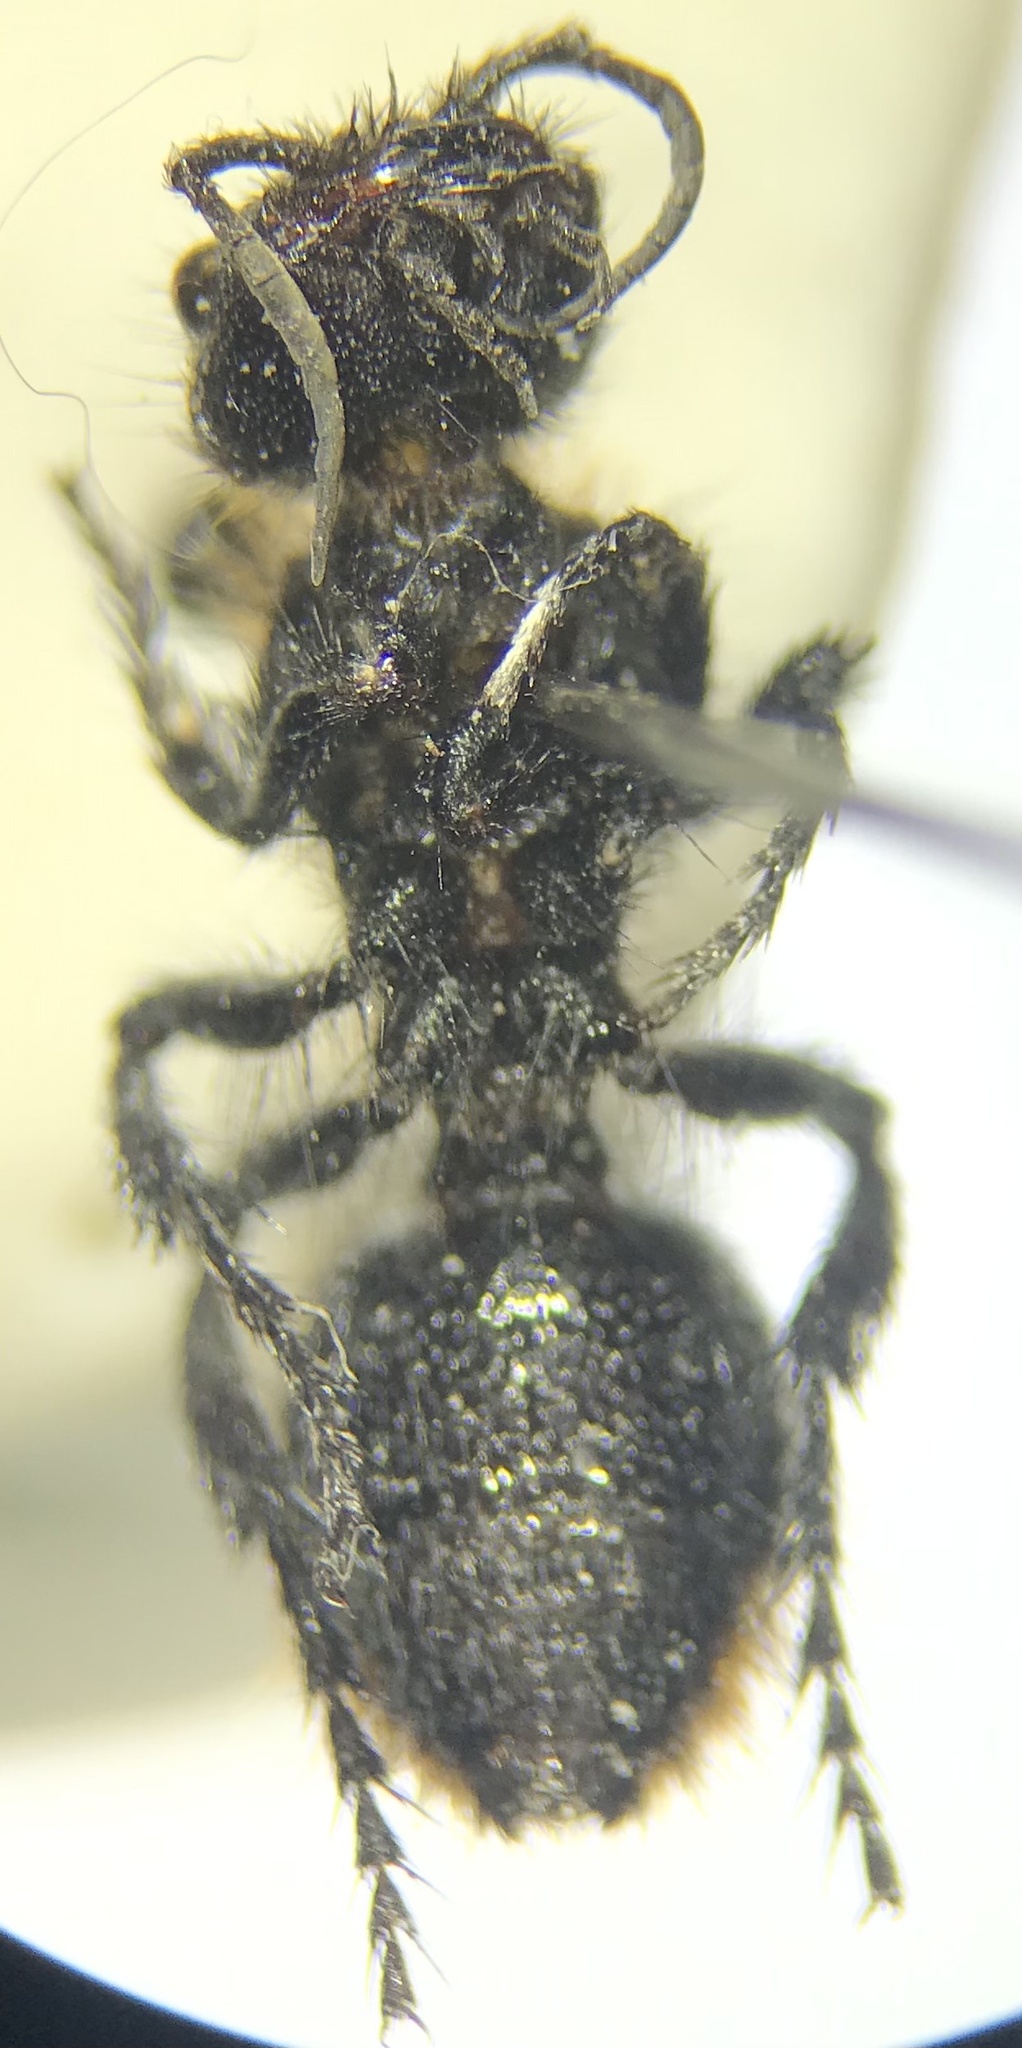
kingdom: Animalia
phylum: Arthropoda
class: Insecta
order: Hymenoptera
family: Mutillidae
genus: Dasymutilla
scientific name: Dasymutilla
